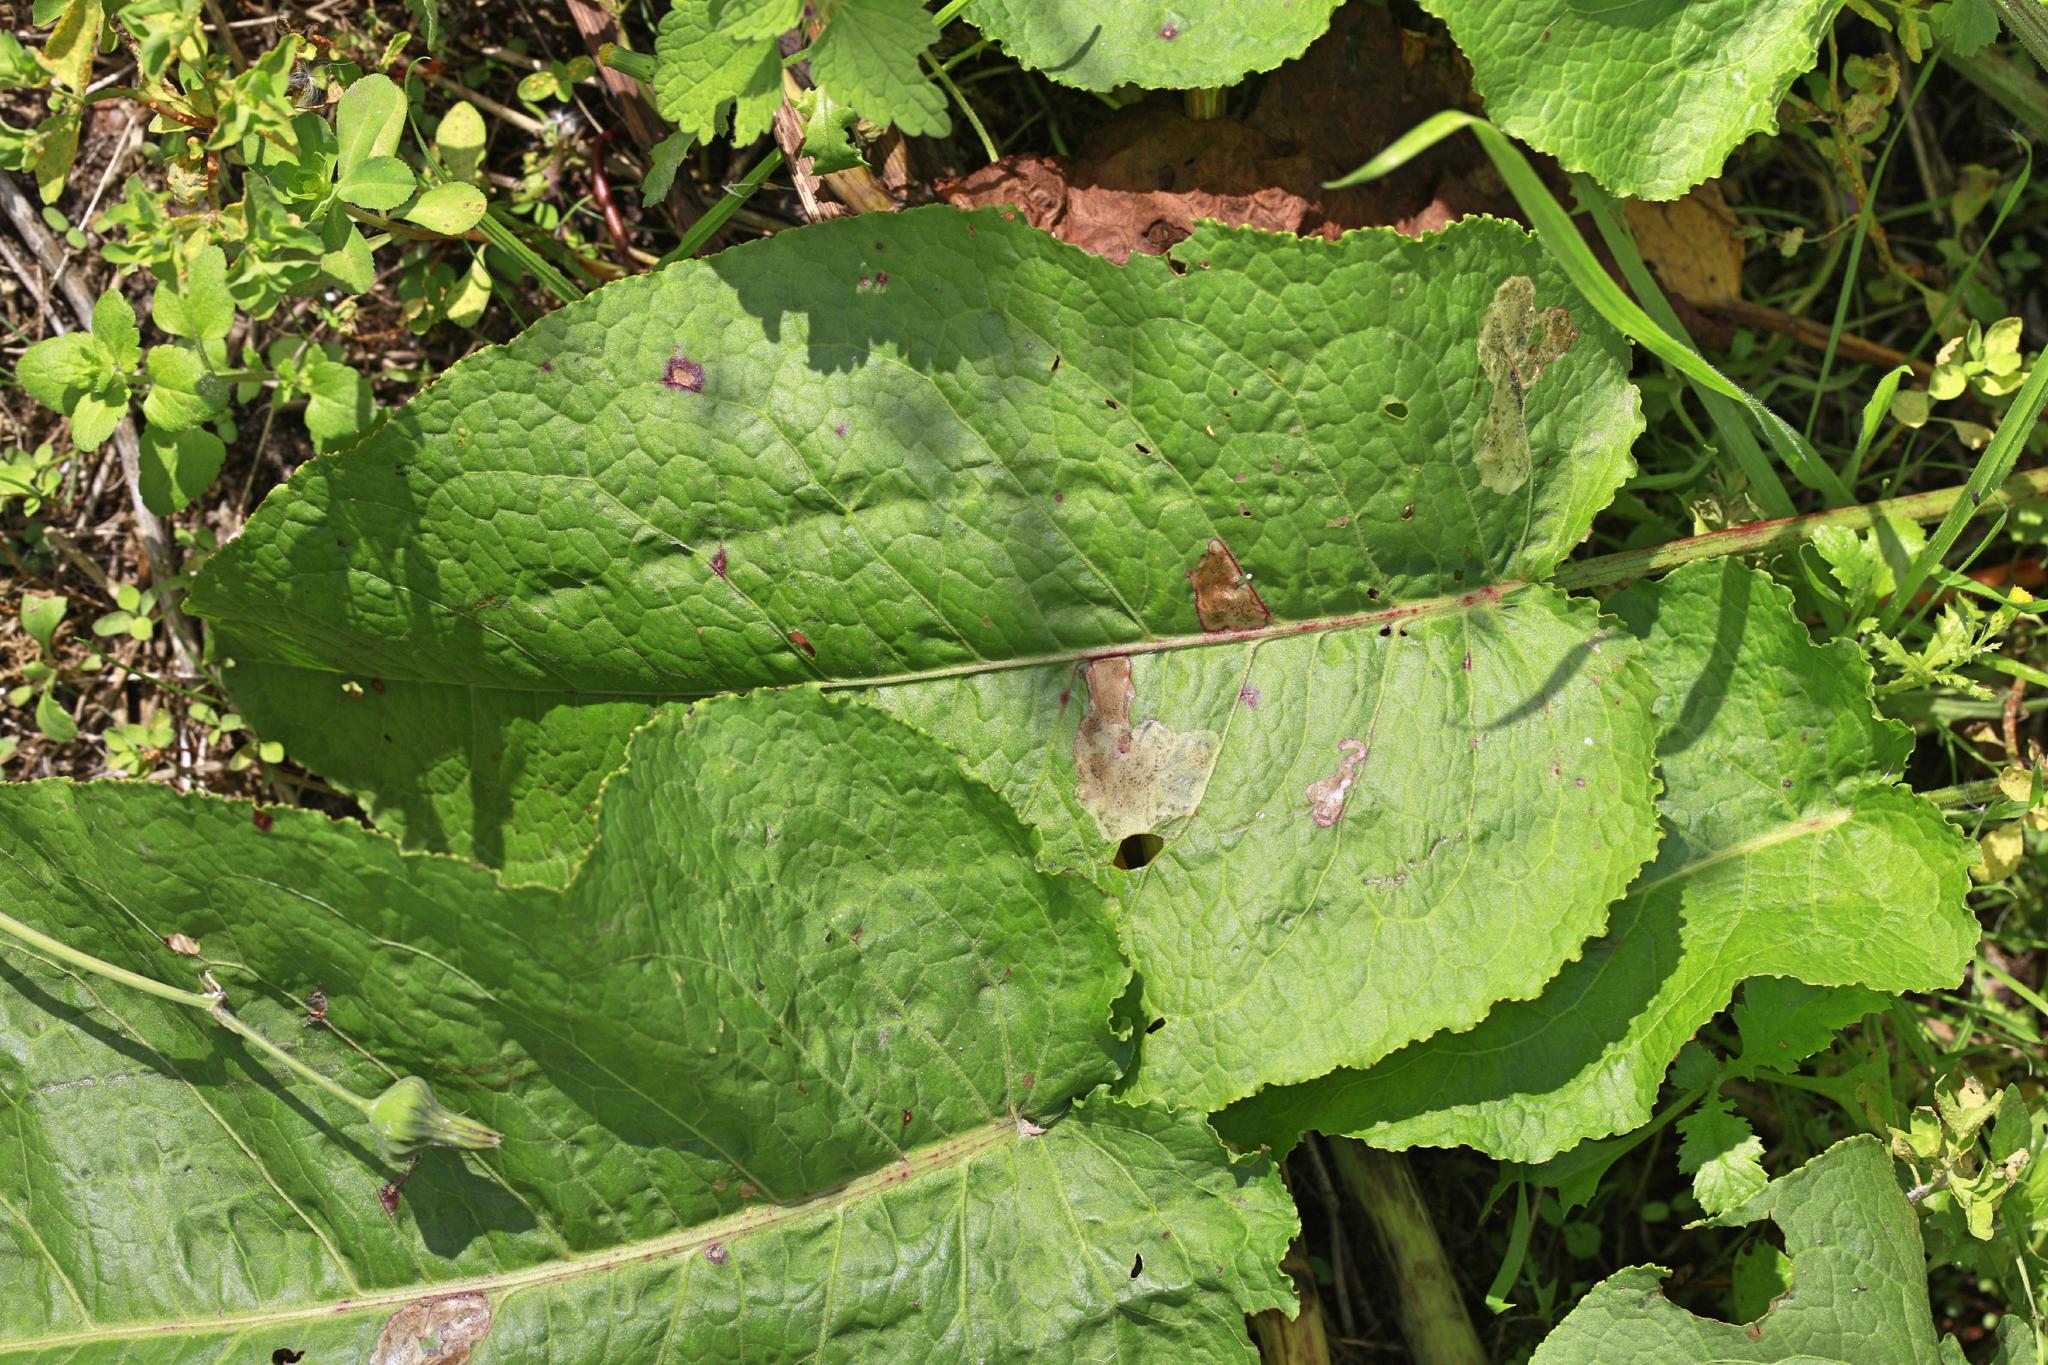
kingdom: Plantae
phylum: Tracheophyta
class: Magnoliopsida
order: Caryophyllales
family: Polygonaceae
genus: Rumex
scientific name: Rumex obtusifolius
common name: Bitter dock
